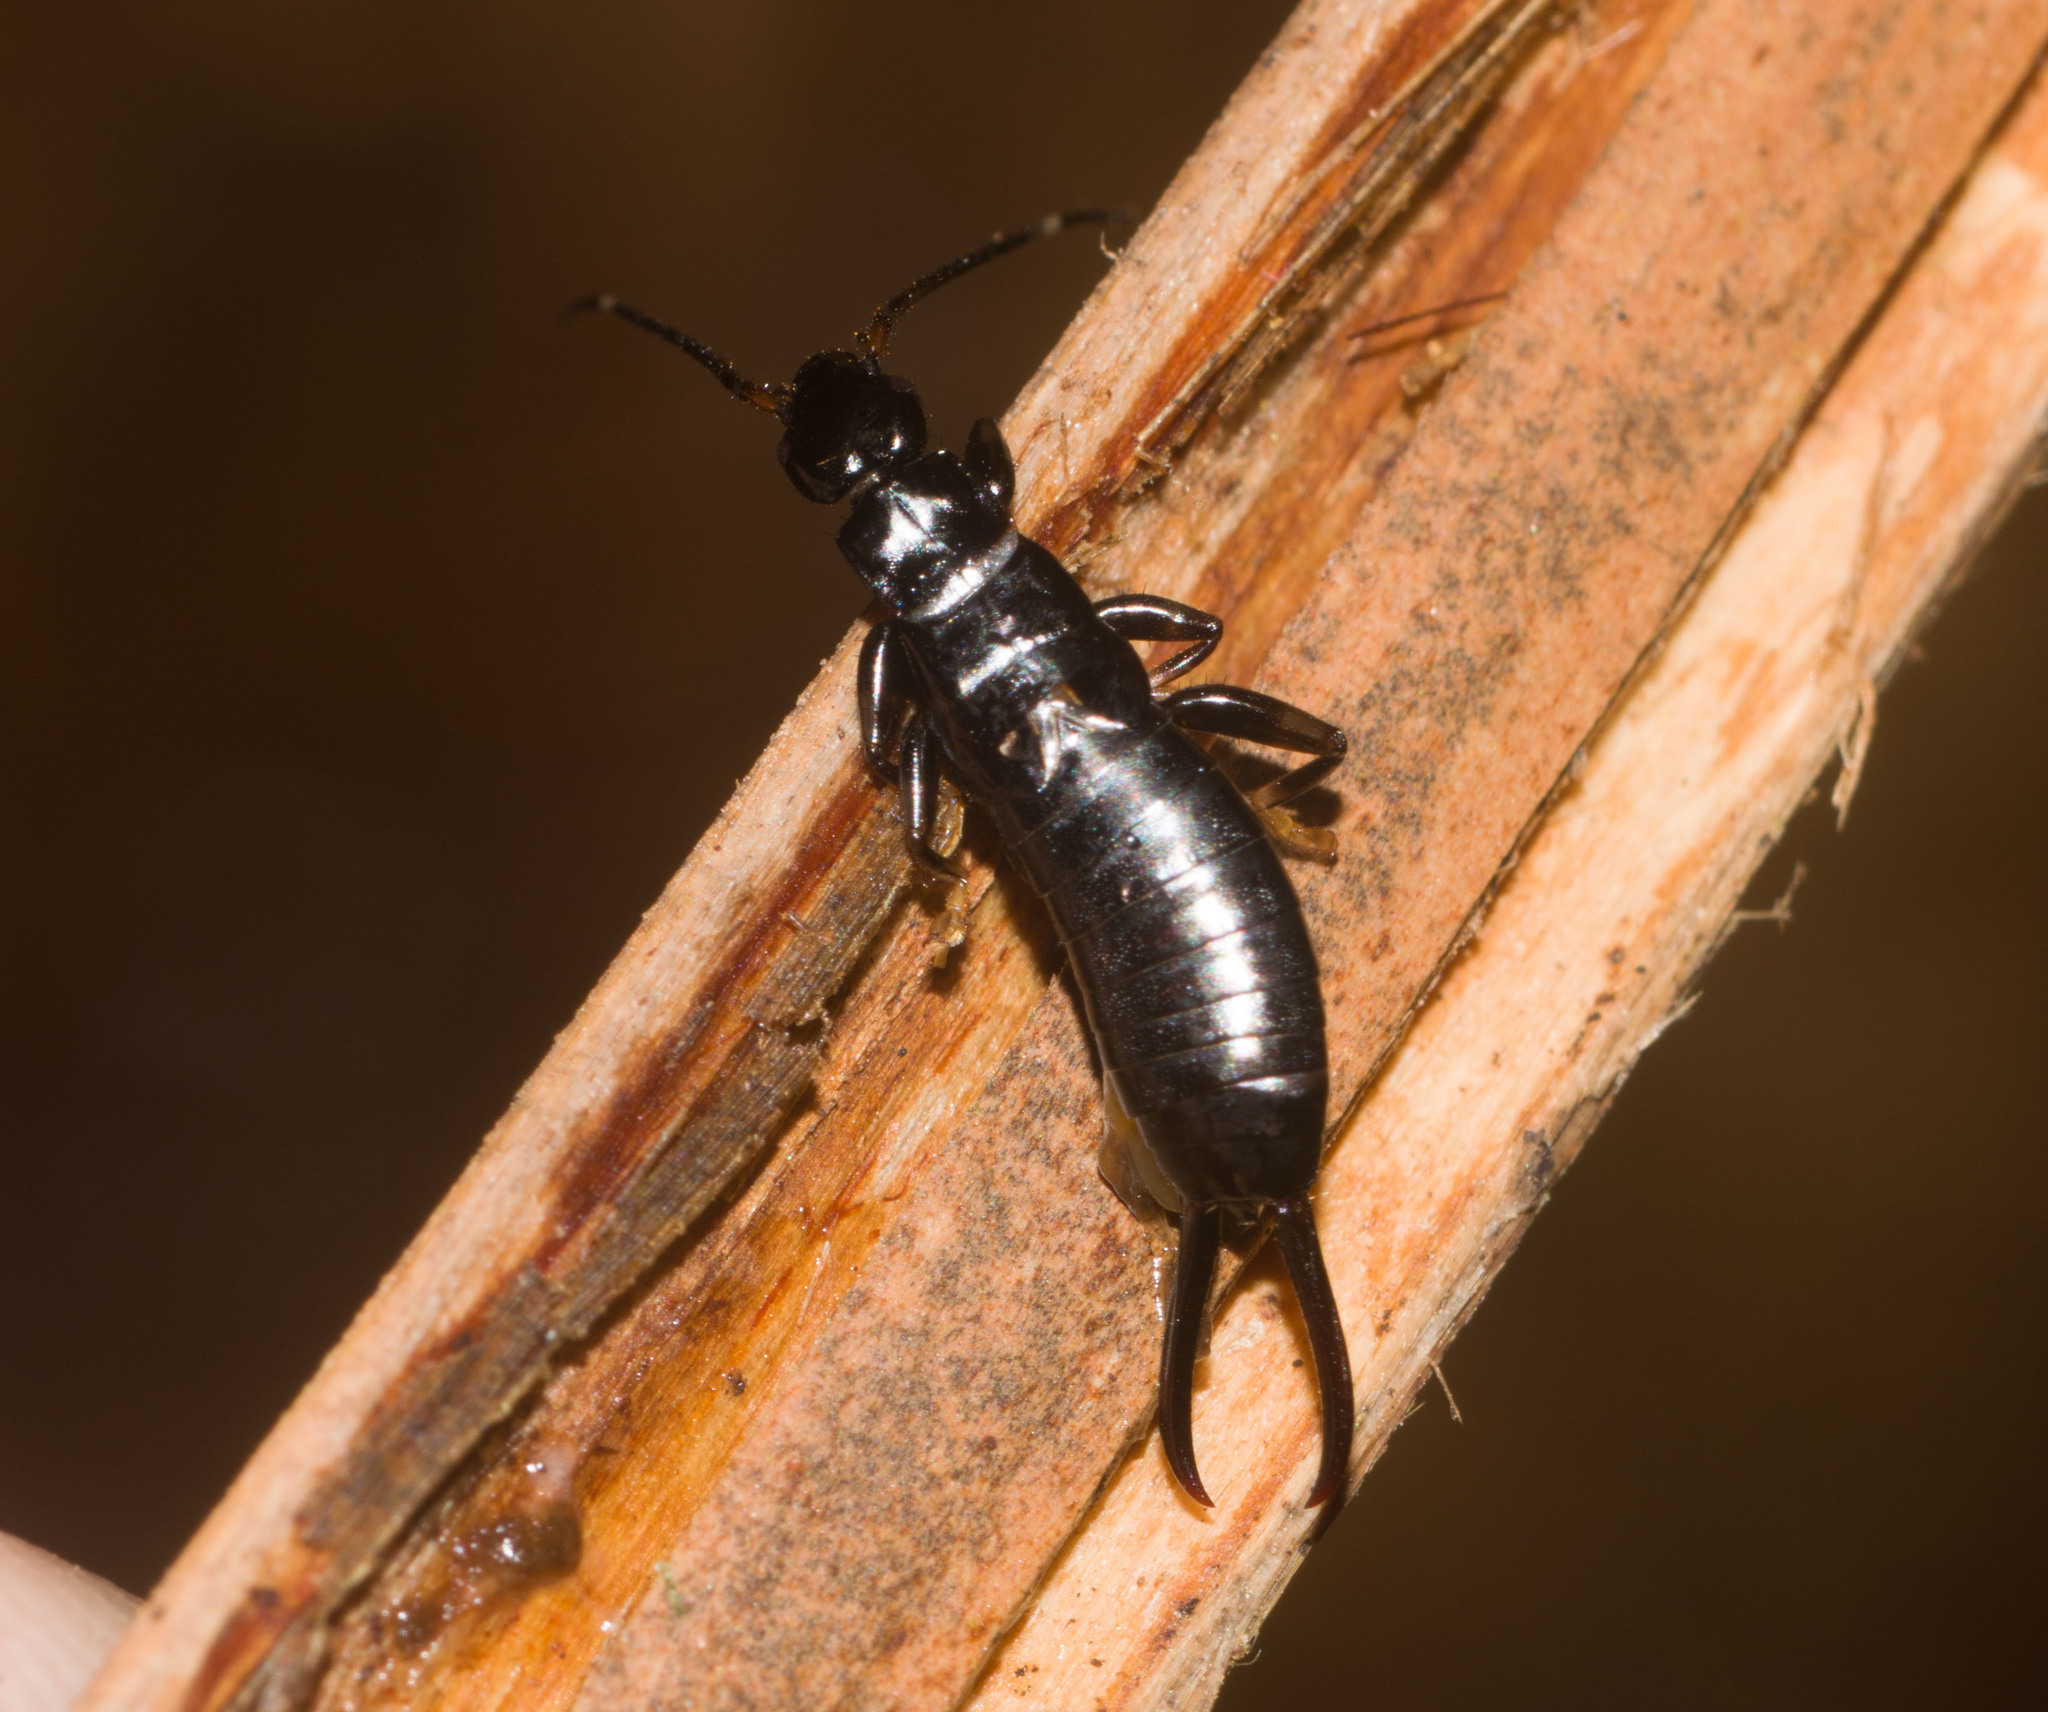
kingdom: Animalia
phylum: Arthropoda
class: Insecta
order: Dermaptera
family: Chelisochidae
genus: Chelisoches
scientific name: Chelisoches morio
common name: Black earwig
